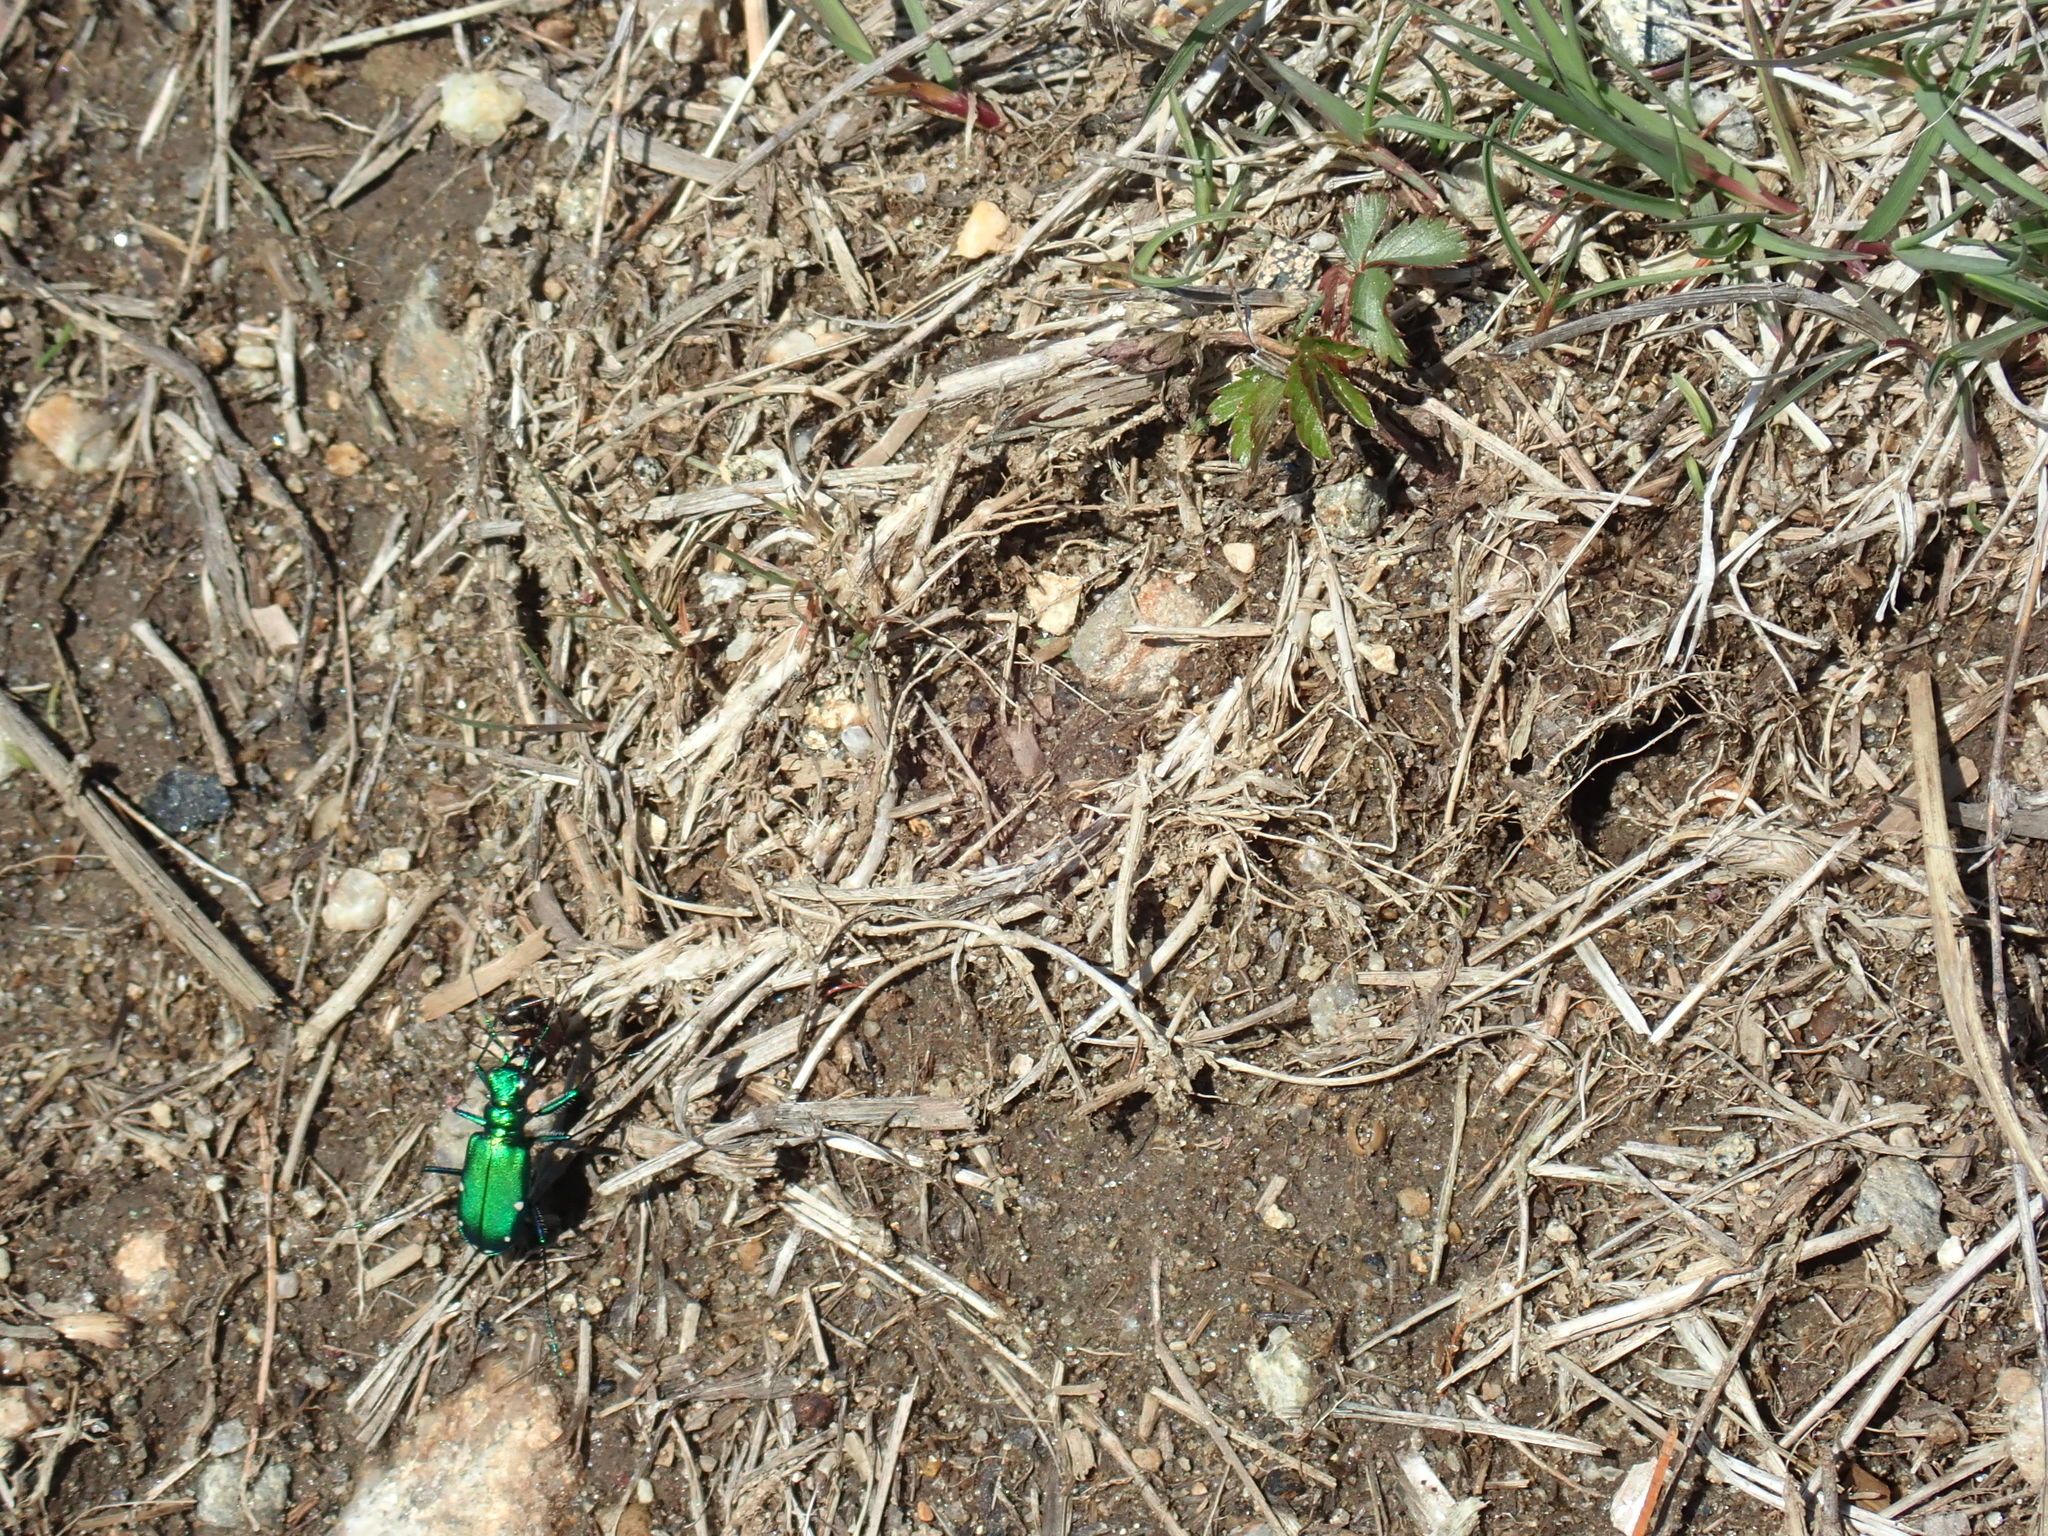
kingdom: Animalia
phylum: Arthropoda
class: Insecta
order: Coleoptera
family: Carabidae
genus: Cicindela
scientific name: Cicindela sexguttata
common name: Six-spotted tiger beetle
